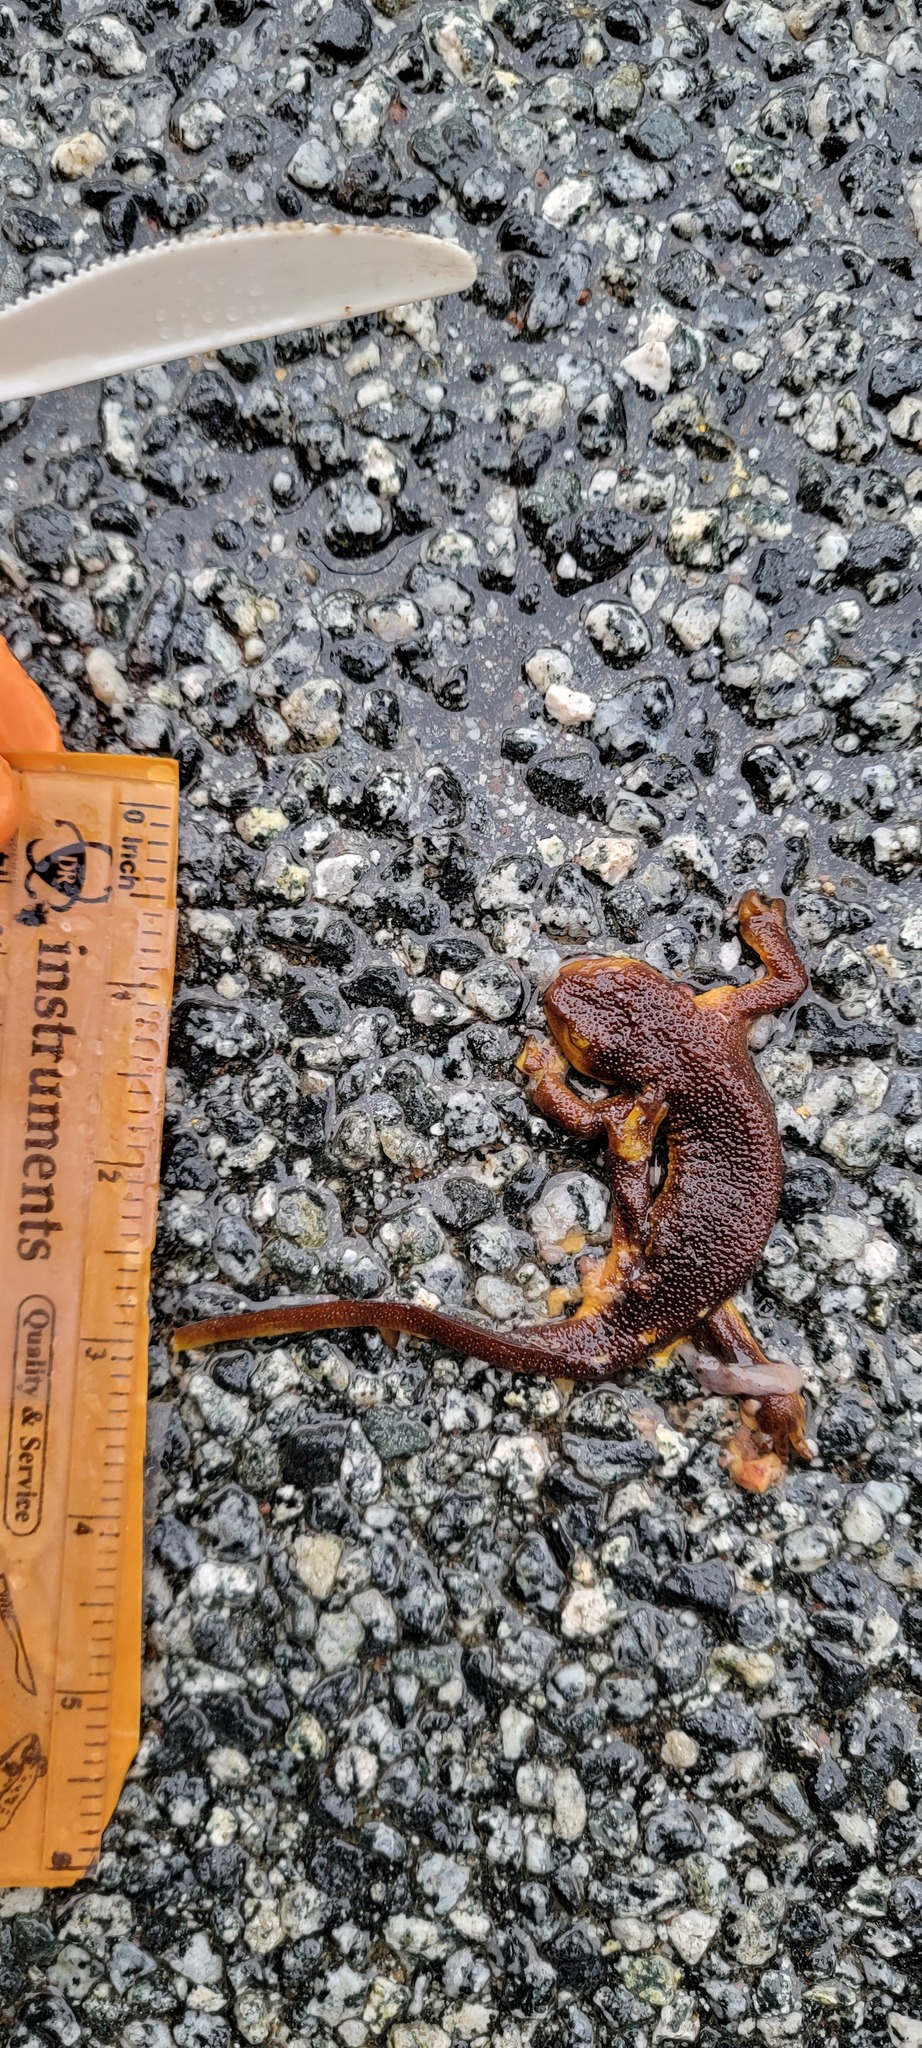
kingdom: Animalia
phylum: Chordata
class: Amphibia
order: Caudata
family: Salamandridae
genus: Taricha
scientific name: Taricha
